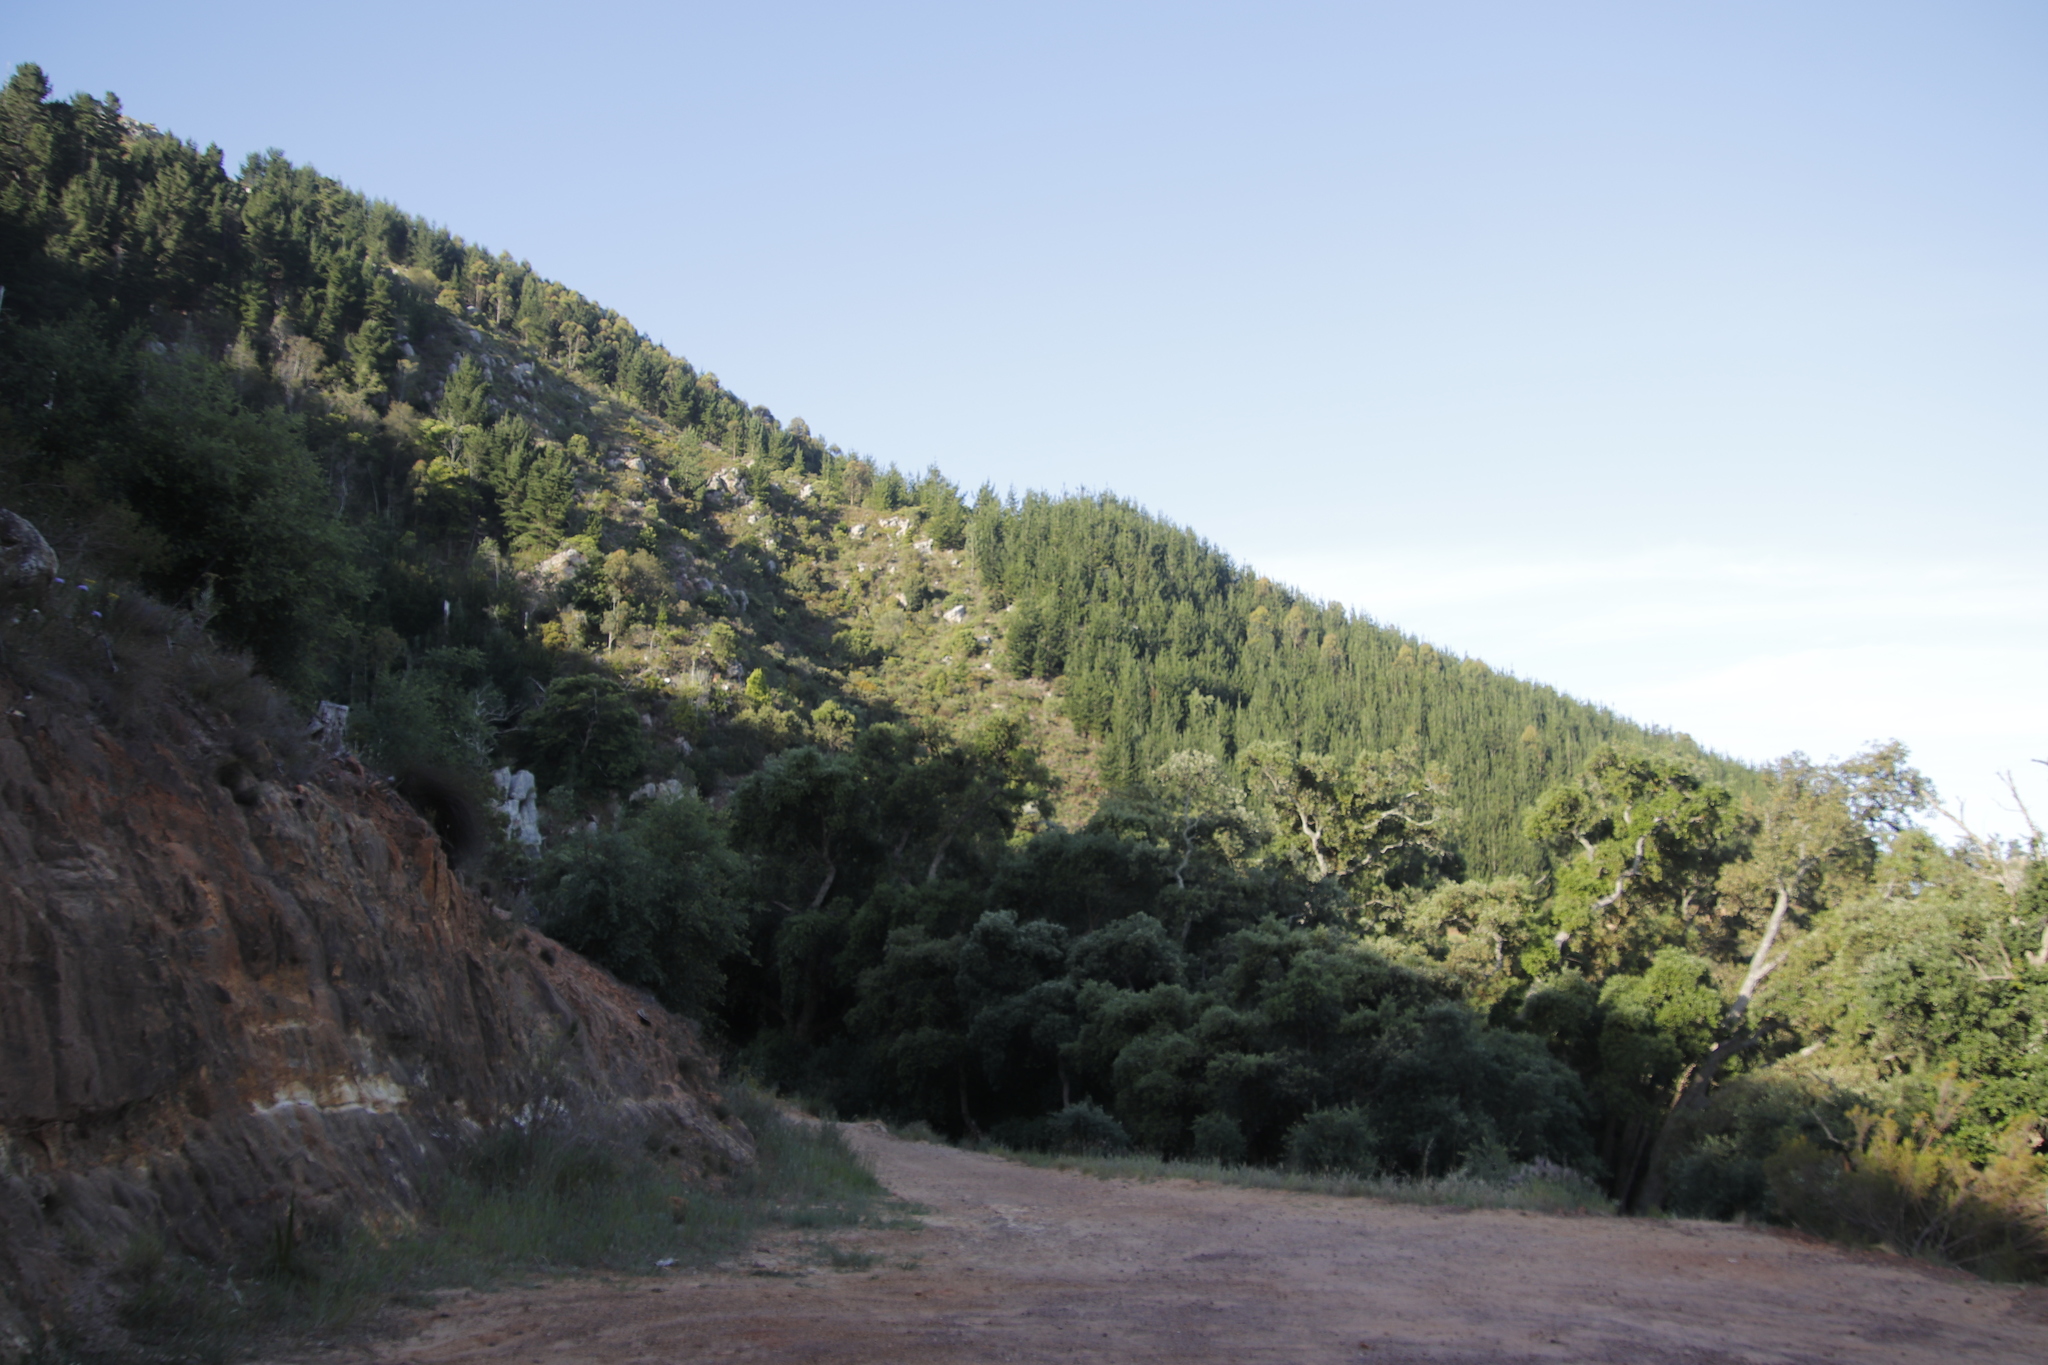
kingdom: Plantae
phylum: Tracheophyta
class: Magnoliopsida
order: Fagales
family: Fagaceae
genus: Quercus
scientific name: Quercus suber
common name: Cork oak
